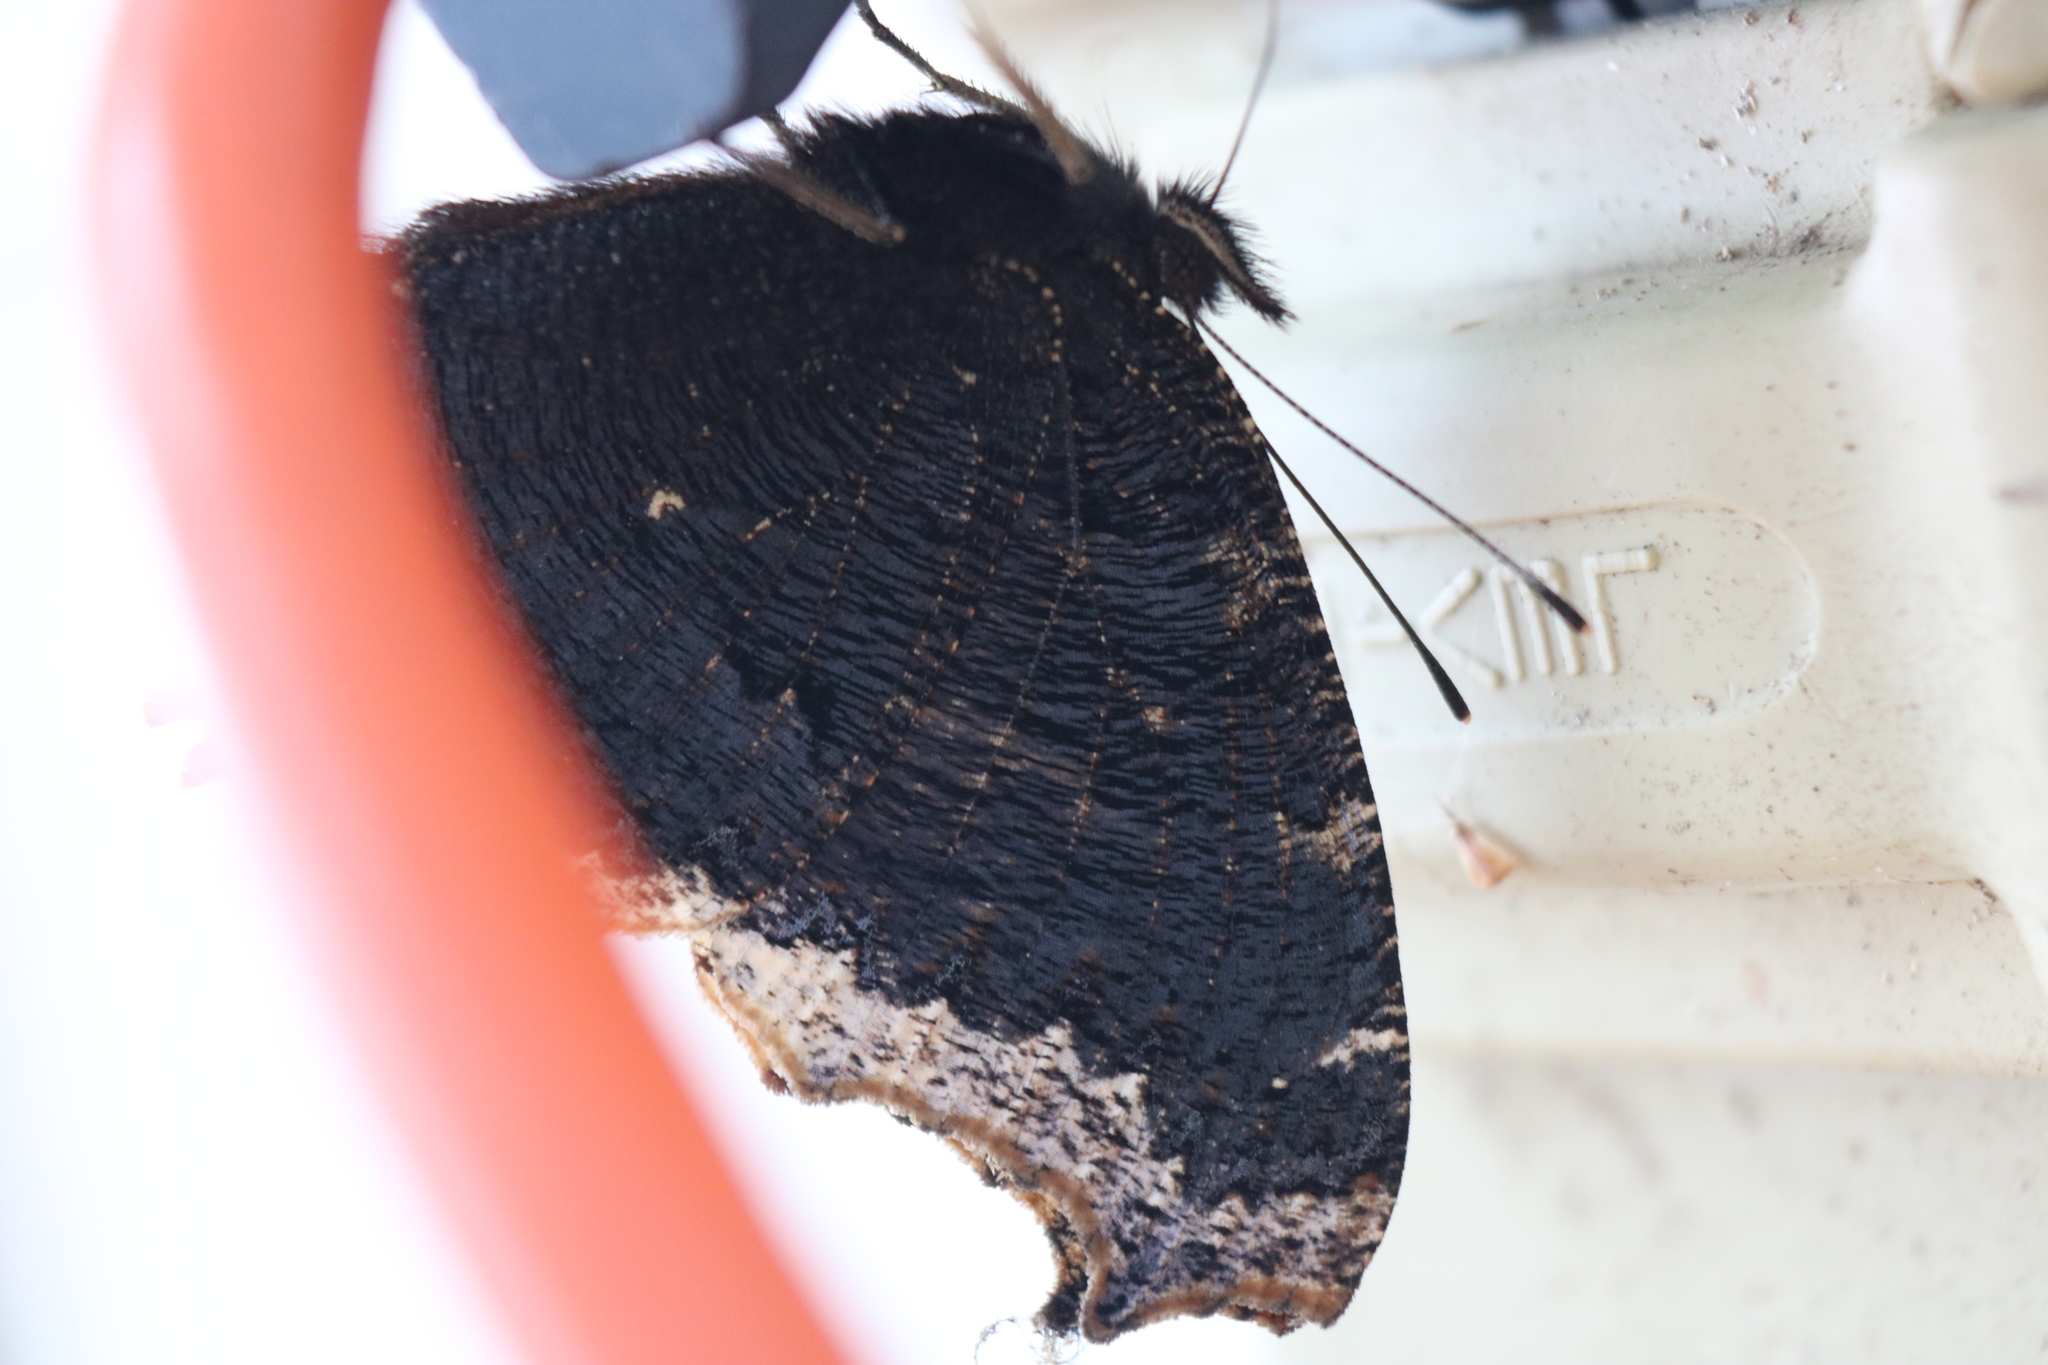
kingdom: Animalia
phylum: Arthropoda
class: Insecta
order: Lepidoptera
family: Nymphalidae
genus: Nymphalis
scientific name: Nymphalis antiopa
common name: Camberwell beauty
